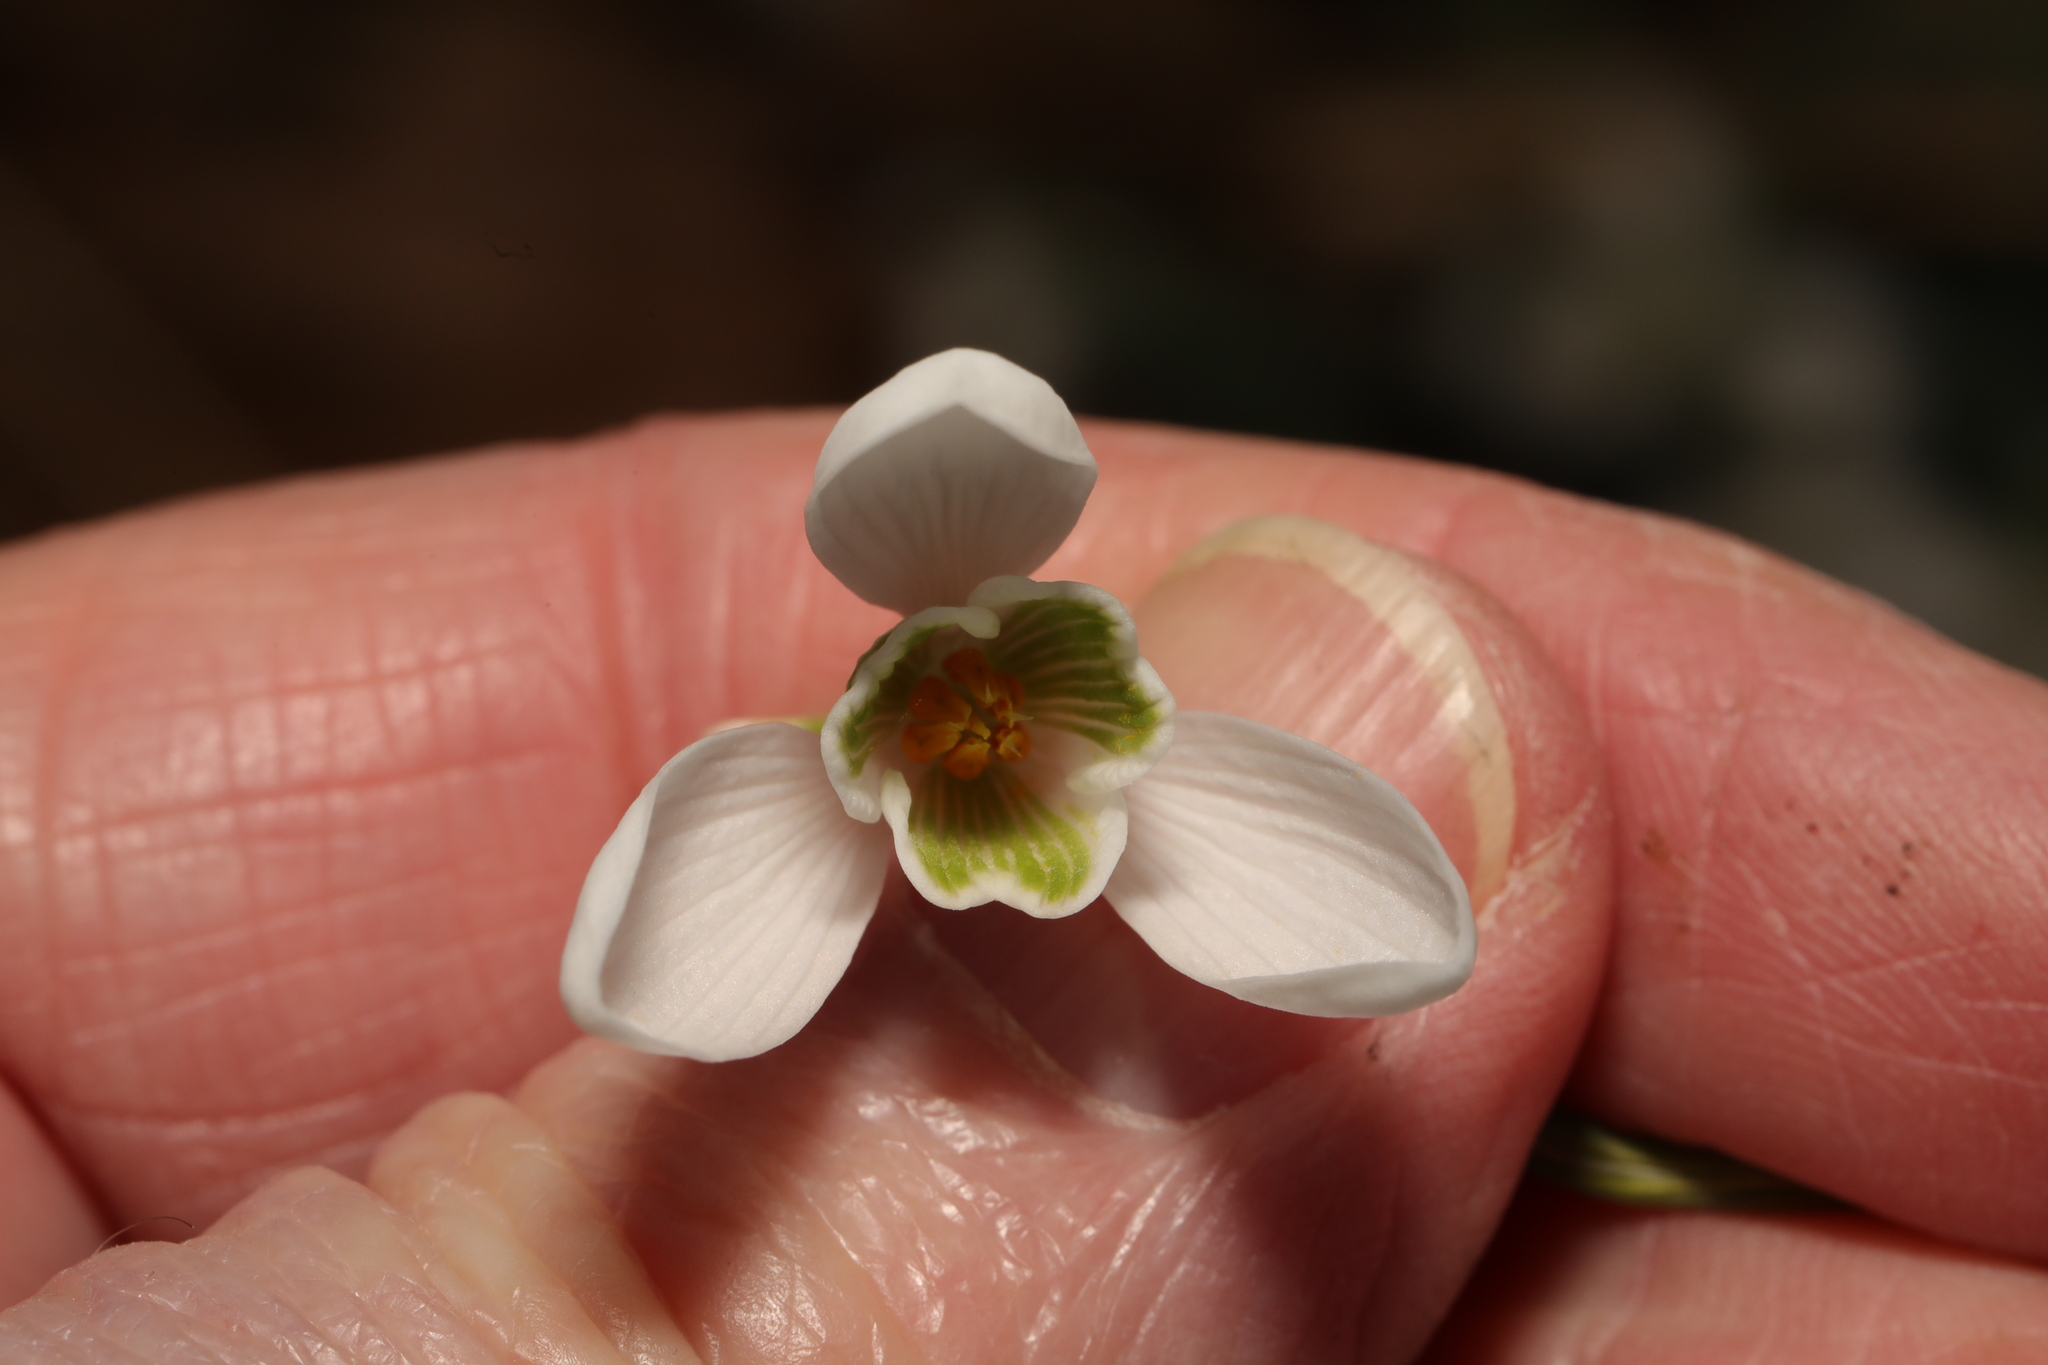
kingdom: Plantae
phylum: Tracheophyta
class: Liliopsida
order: Asparagales
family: Amaryllidaceae
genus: Galanthus
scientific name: Galanthus nivalis
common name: Snowdrop
